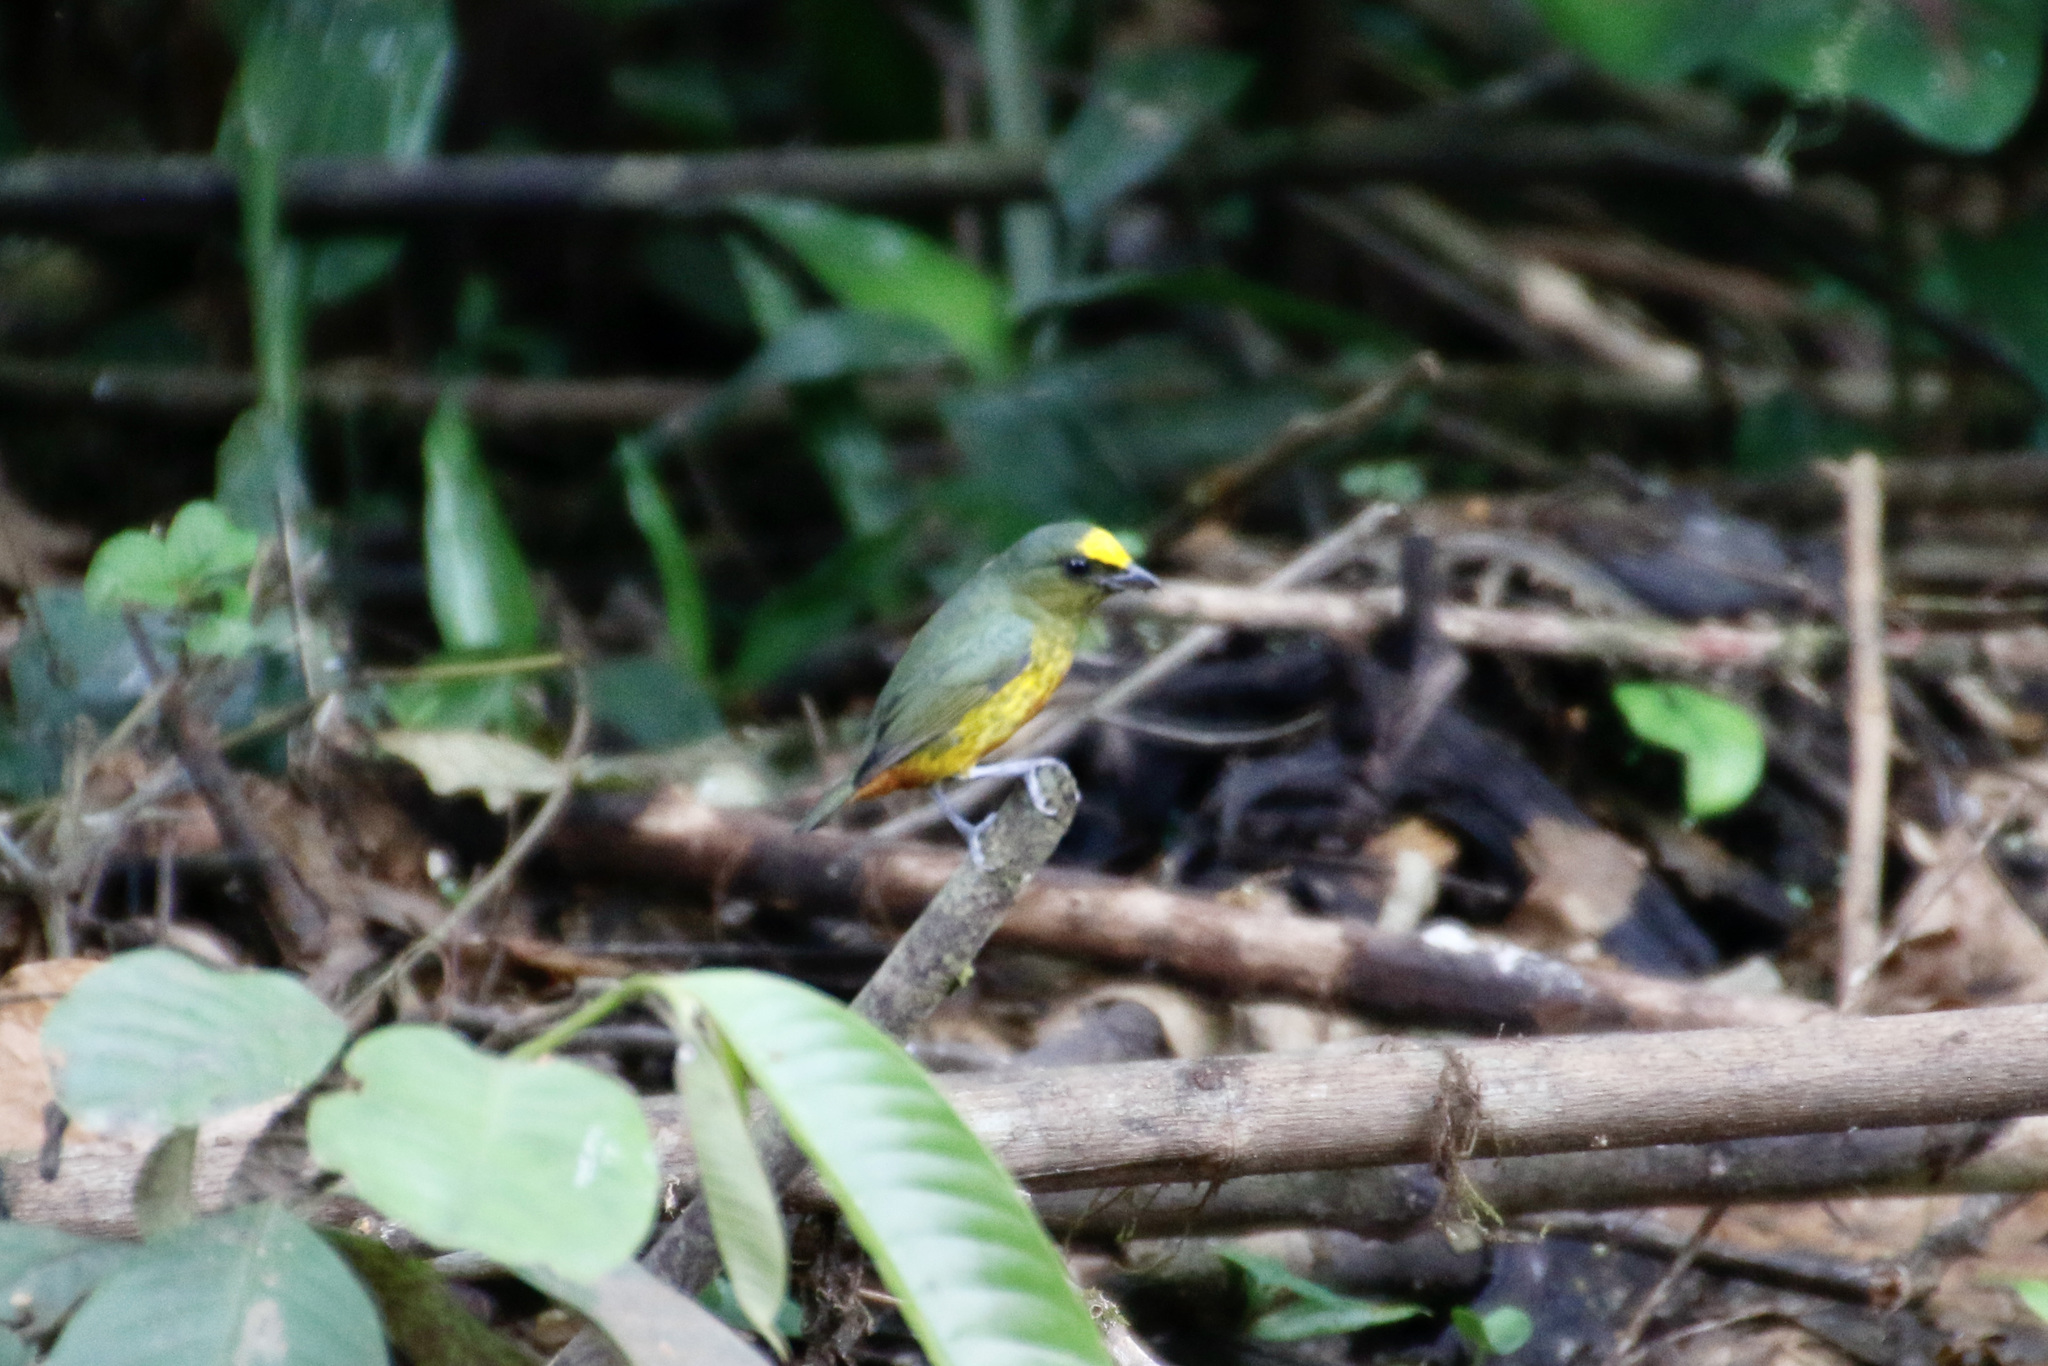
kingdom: Animalia
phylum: Chordata
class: Aves
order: Passeriformes
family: Fringillidae
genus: Euphonia
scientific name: Euphonia gouldi
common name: Olive-backed euphonia
